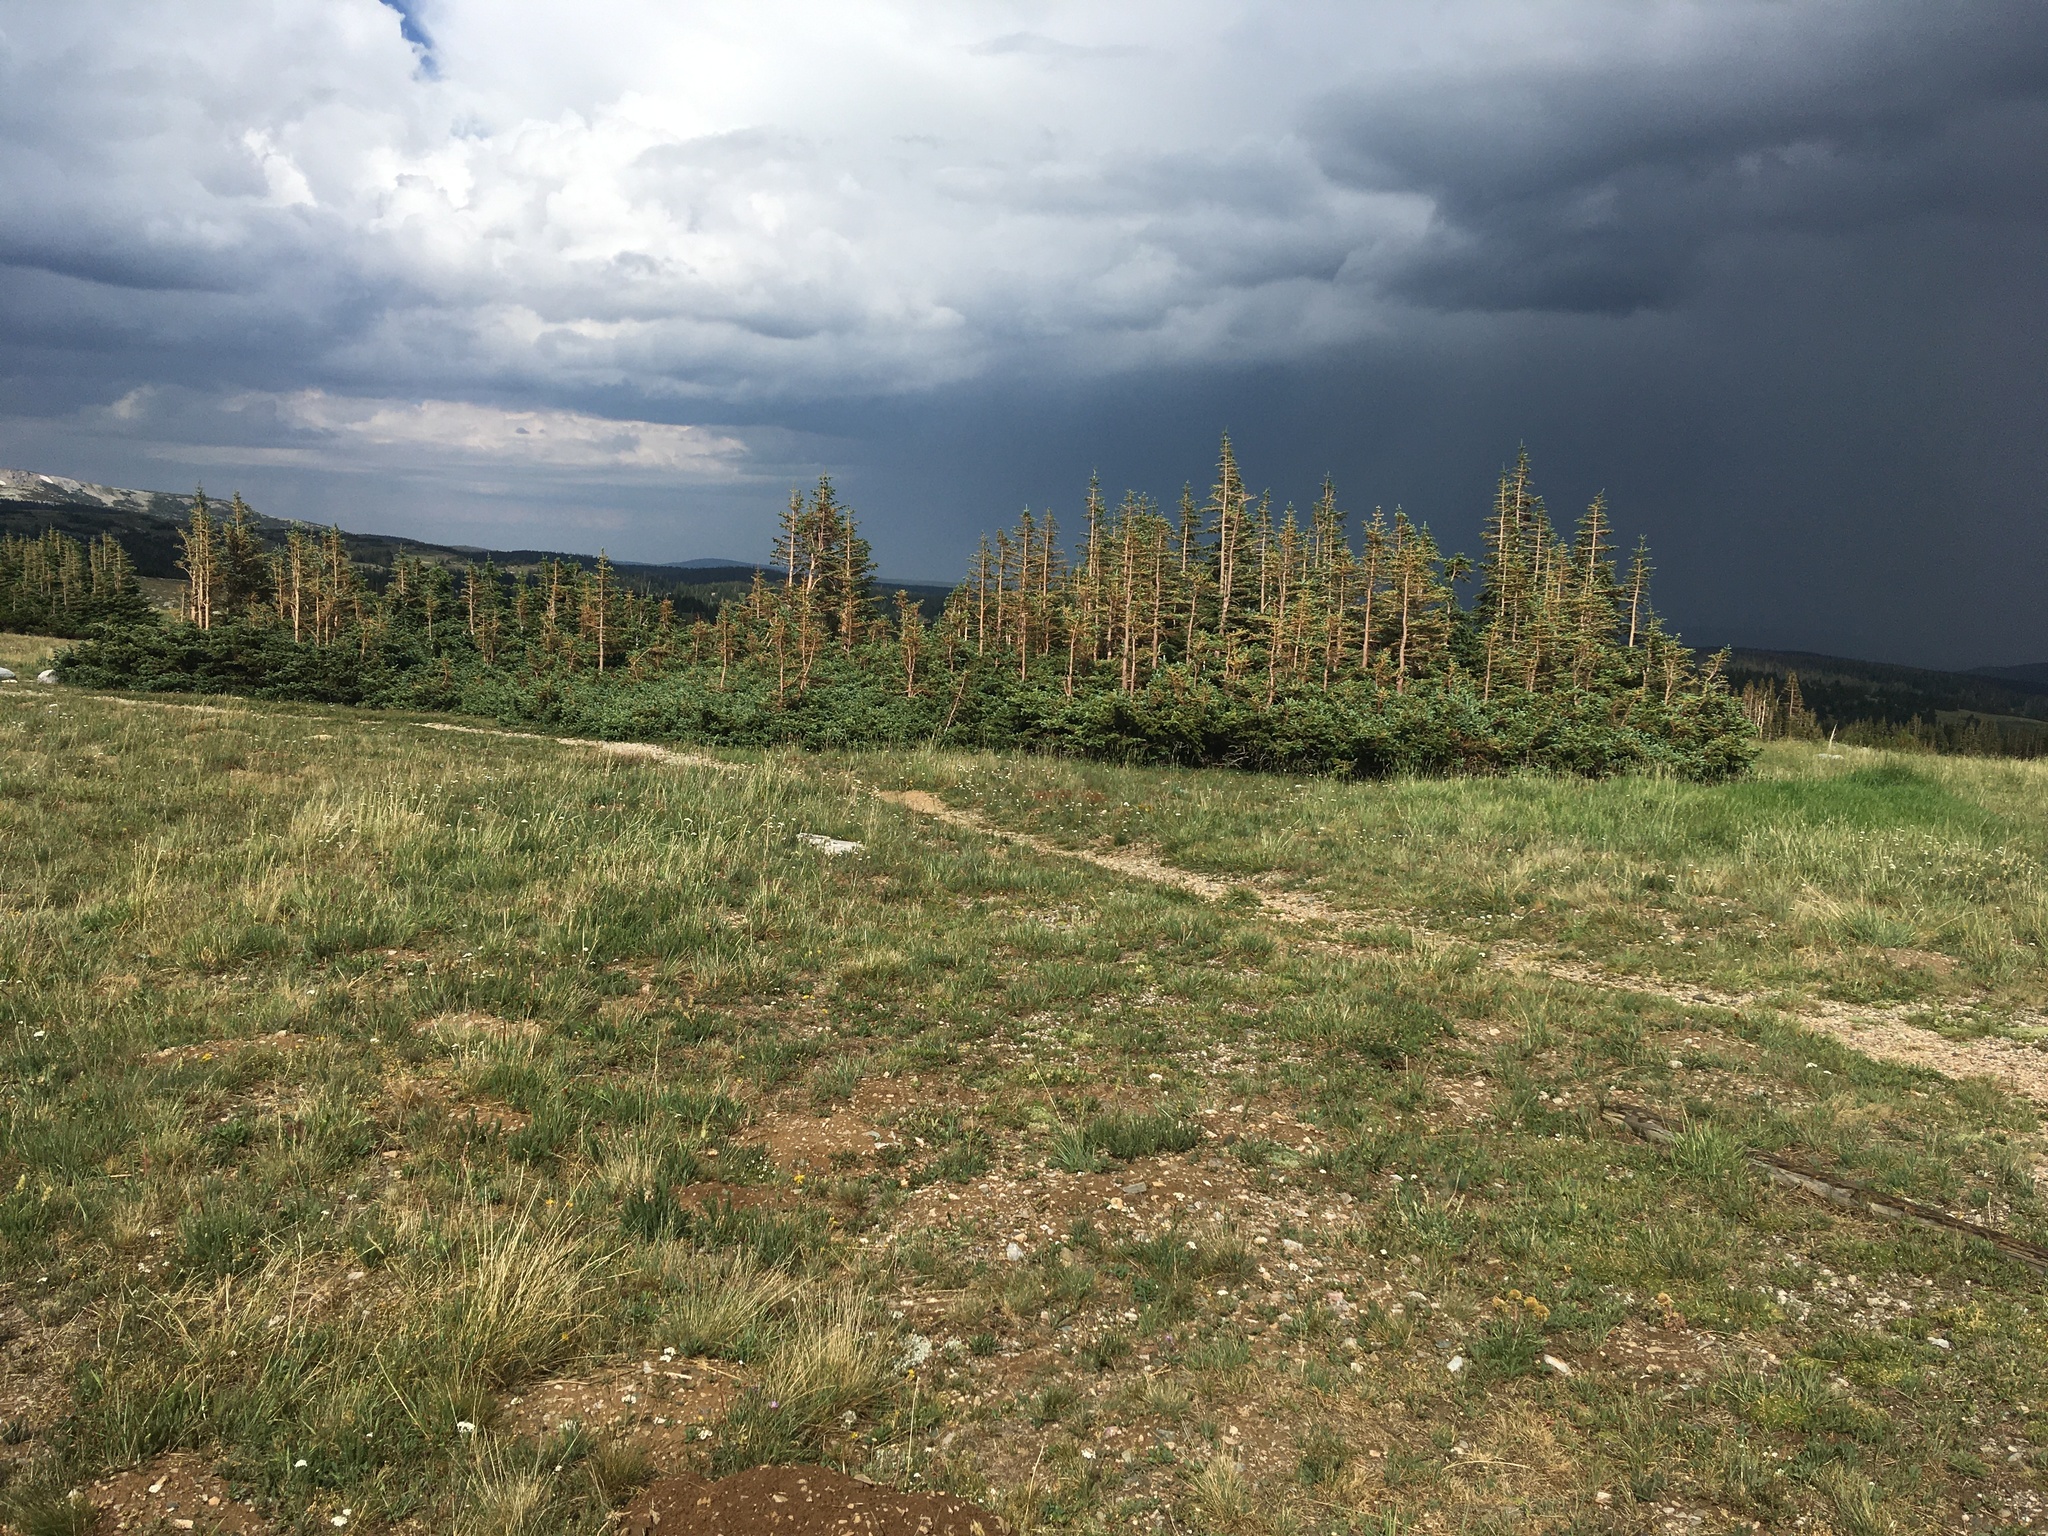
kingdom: Plantae
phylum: Tracheophyta
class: Pinopsida
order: Pinales
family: Pinaceae
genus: Abies
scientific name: Abies lasiocarpa
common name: Subalpine fir
